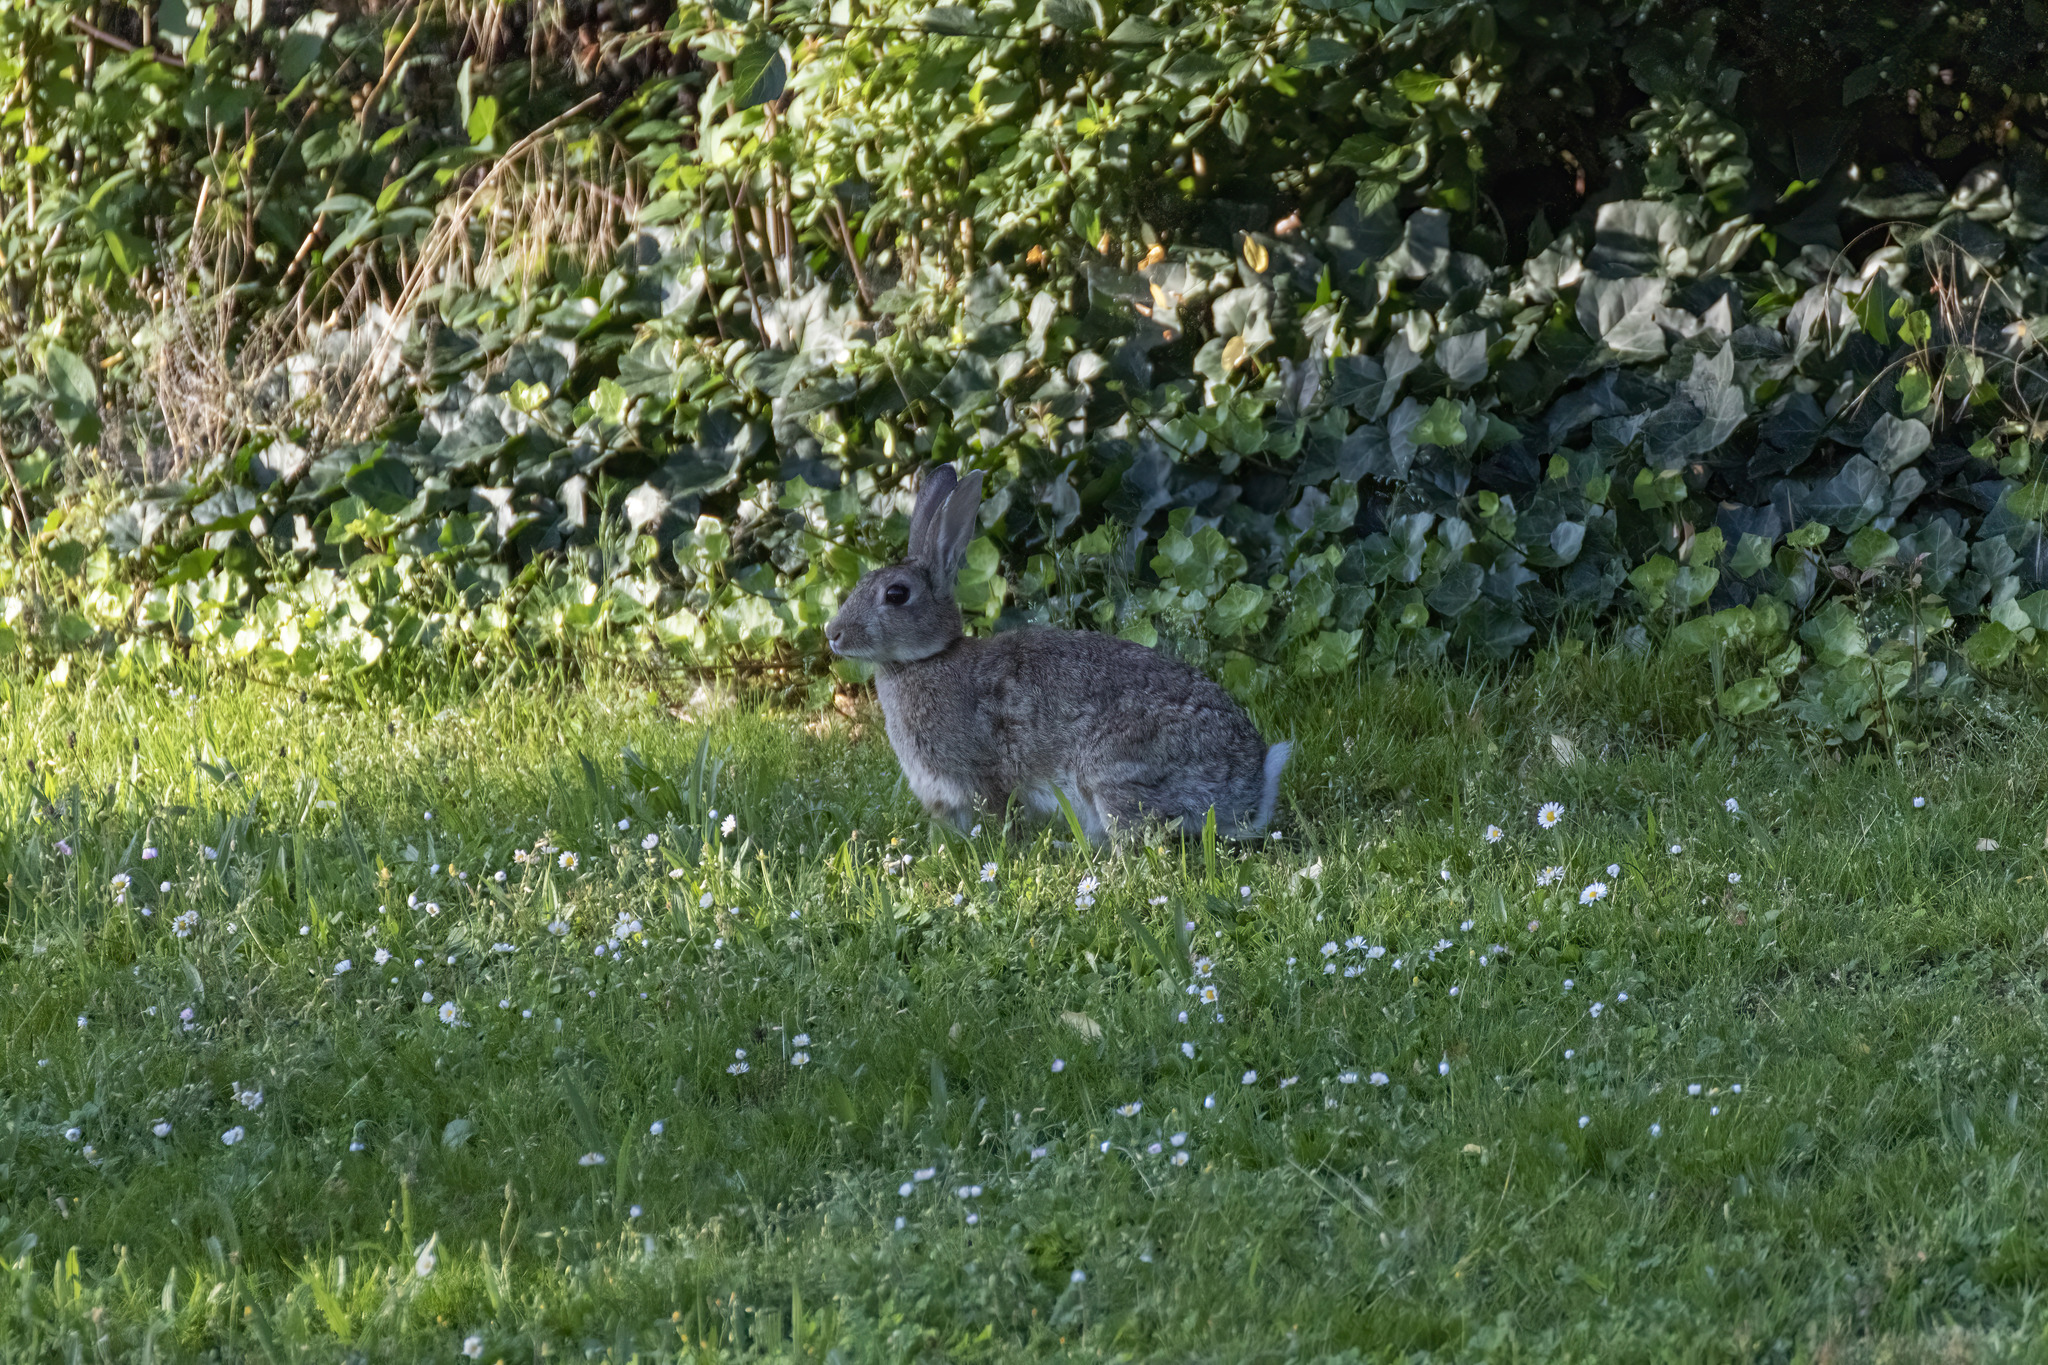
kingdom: Animalia
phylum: Chordata
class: Mammalia
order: Lagomorpha
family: Leporidae
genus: Oryctolagus
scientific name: Oryctolagus cuniculus
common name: European rabbit
